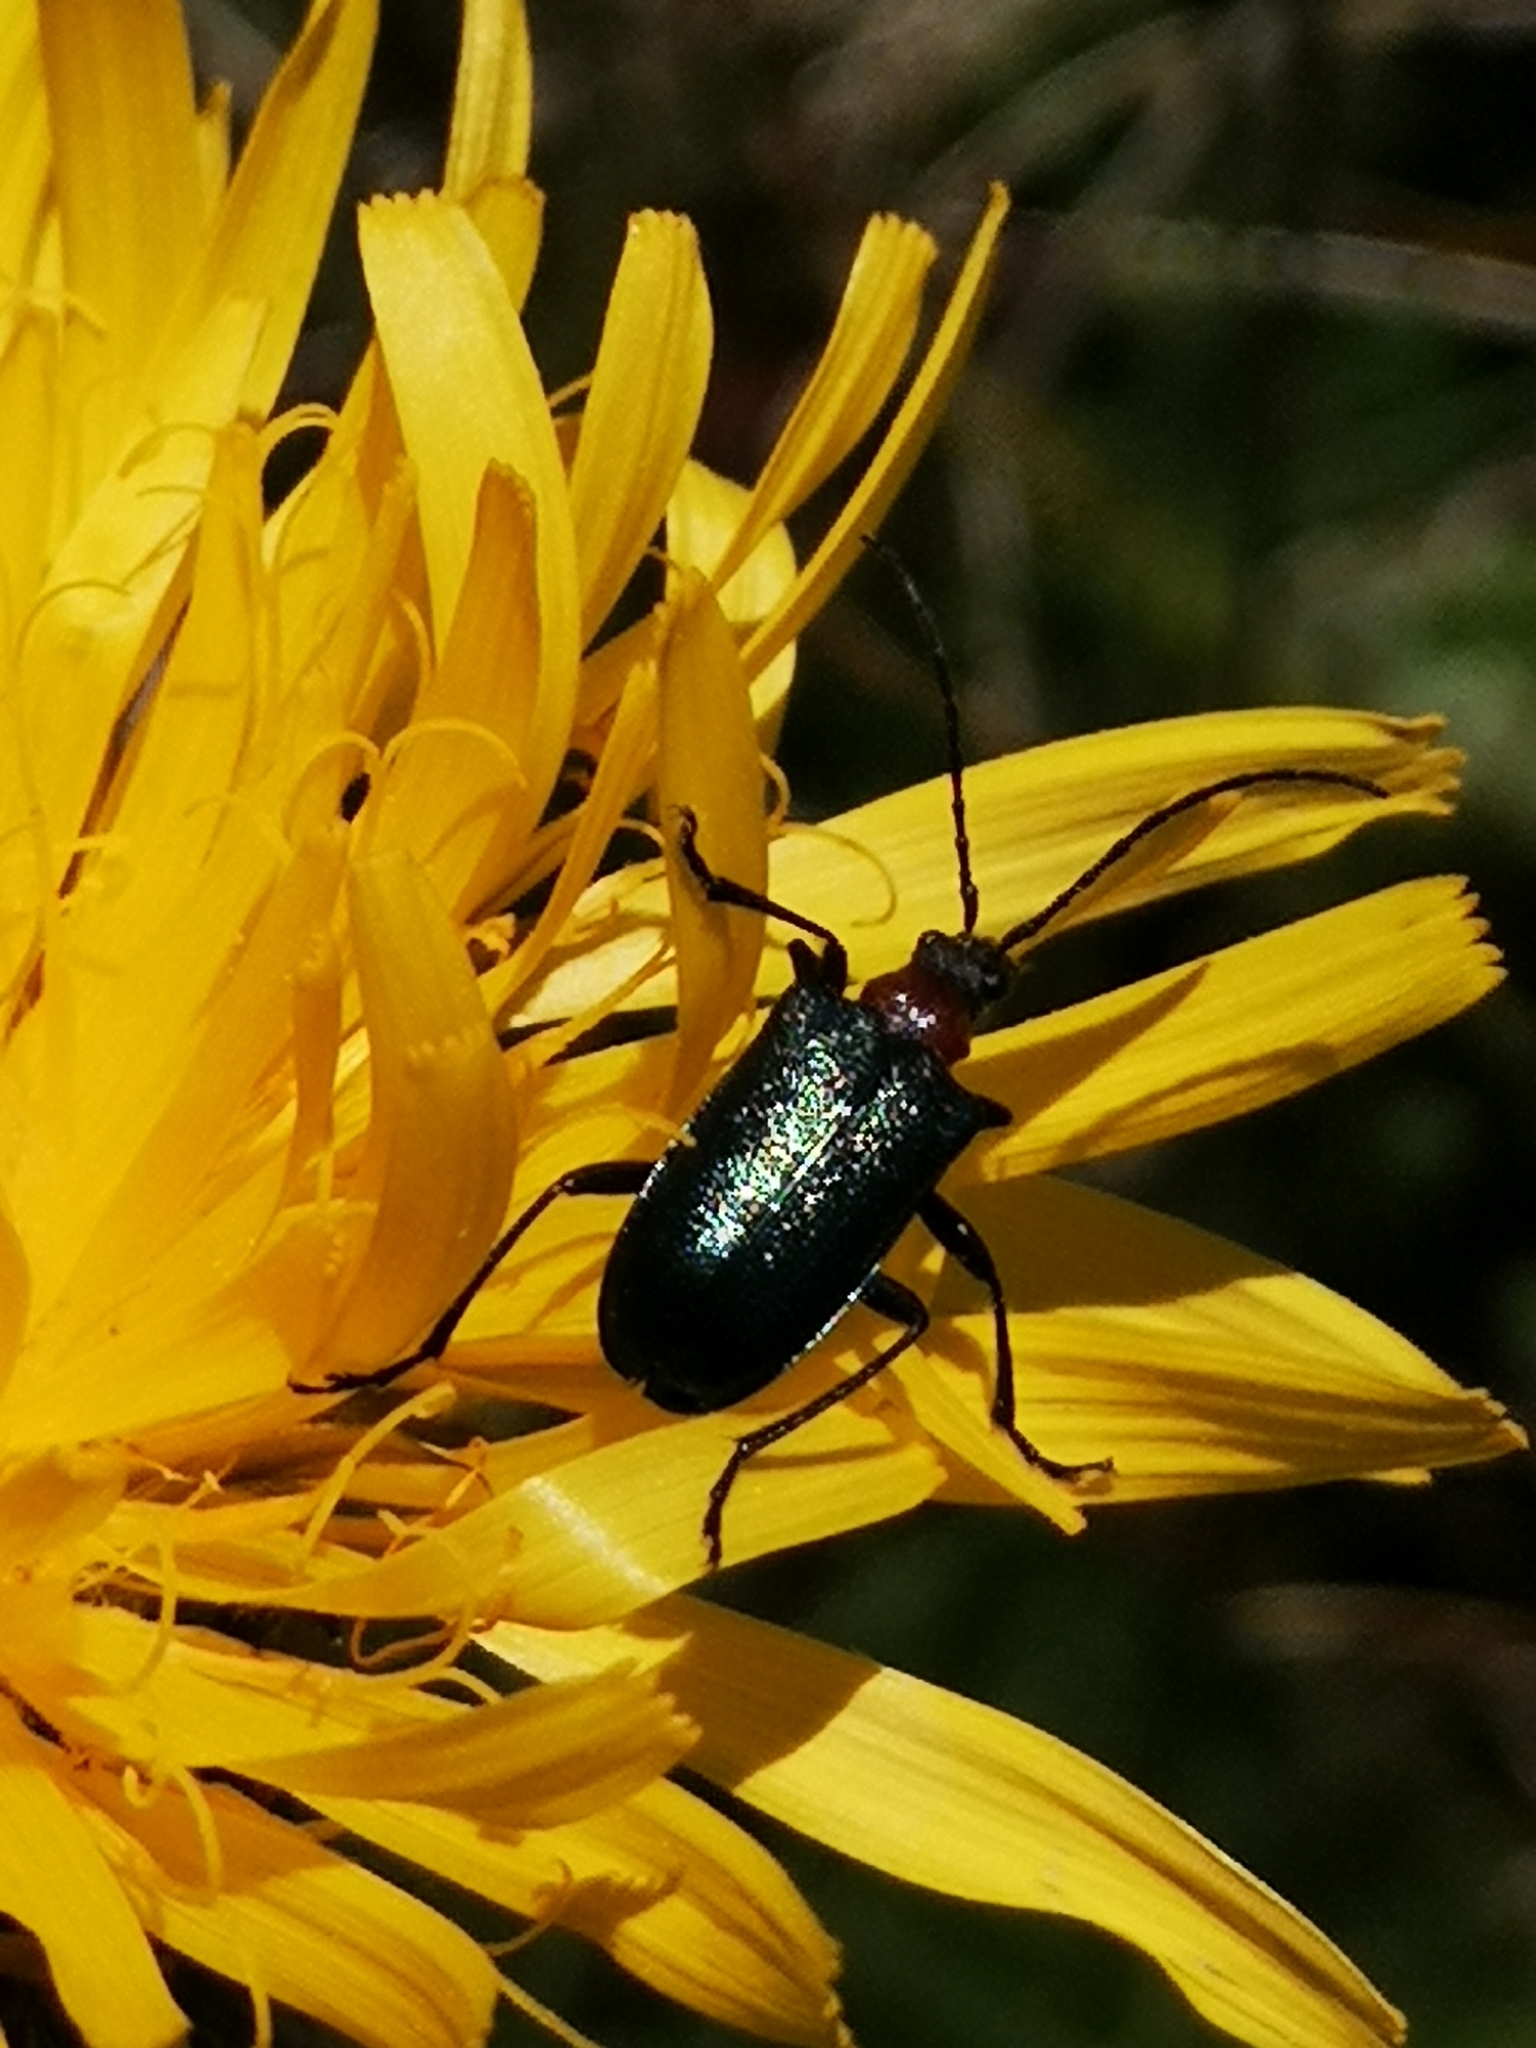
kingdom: Animalia
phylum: Arthropoda
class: Insecta
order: Coleoptera
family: Cerambycidae
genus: Gaurotes
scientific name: Gaurotes virginea
